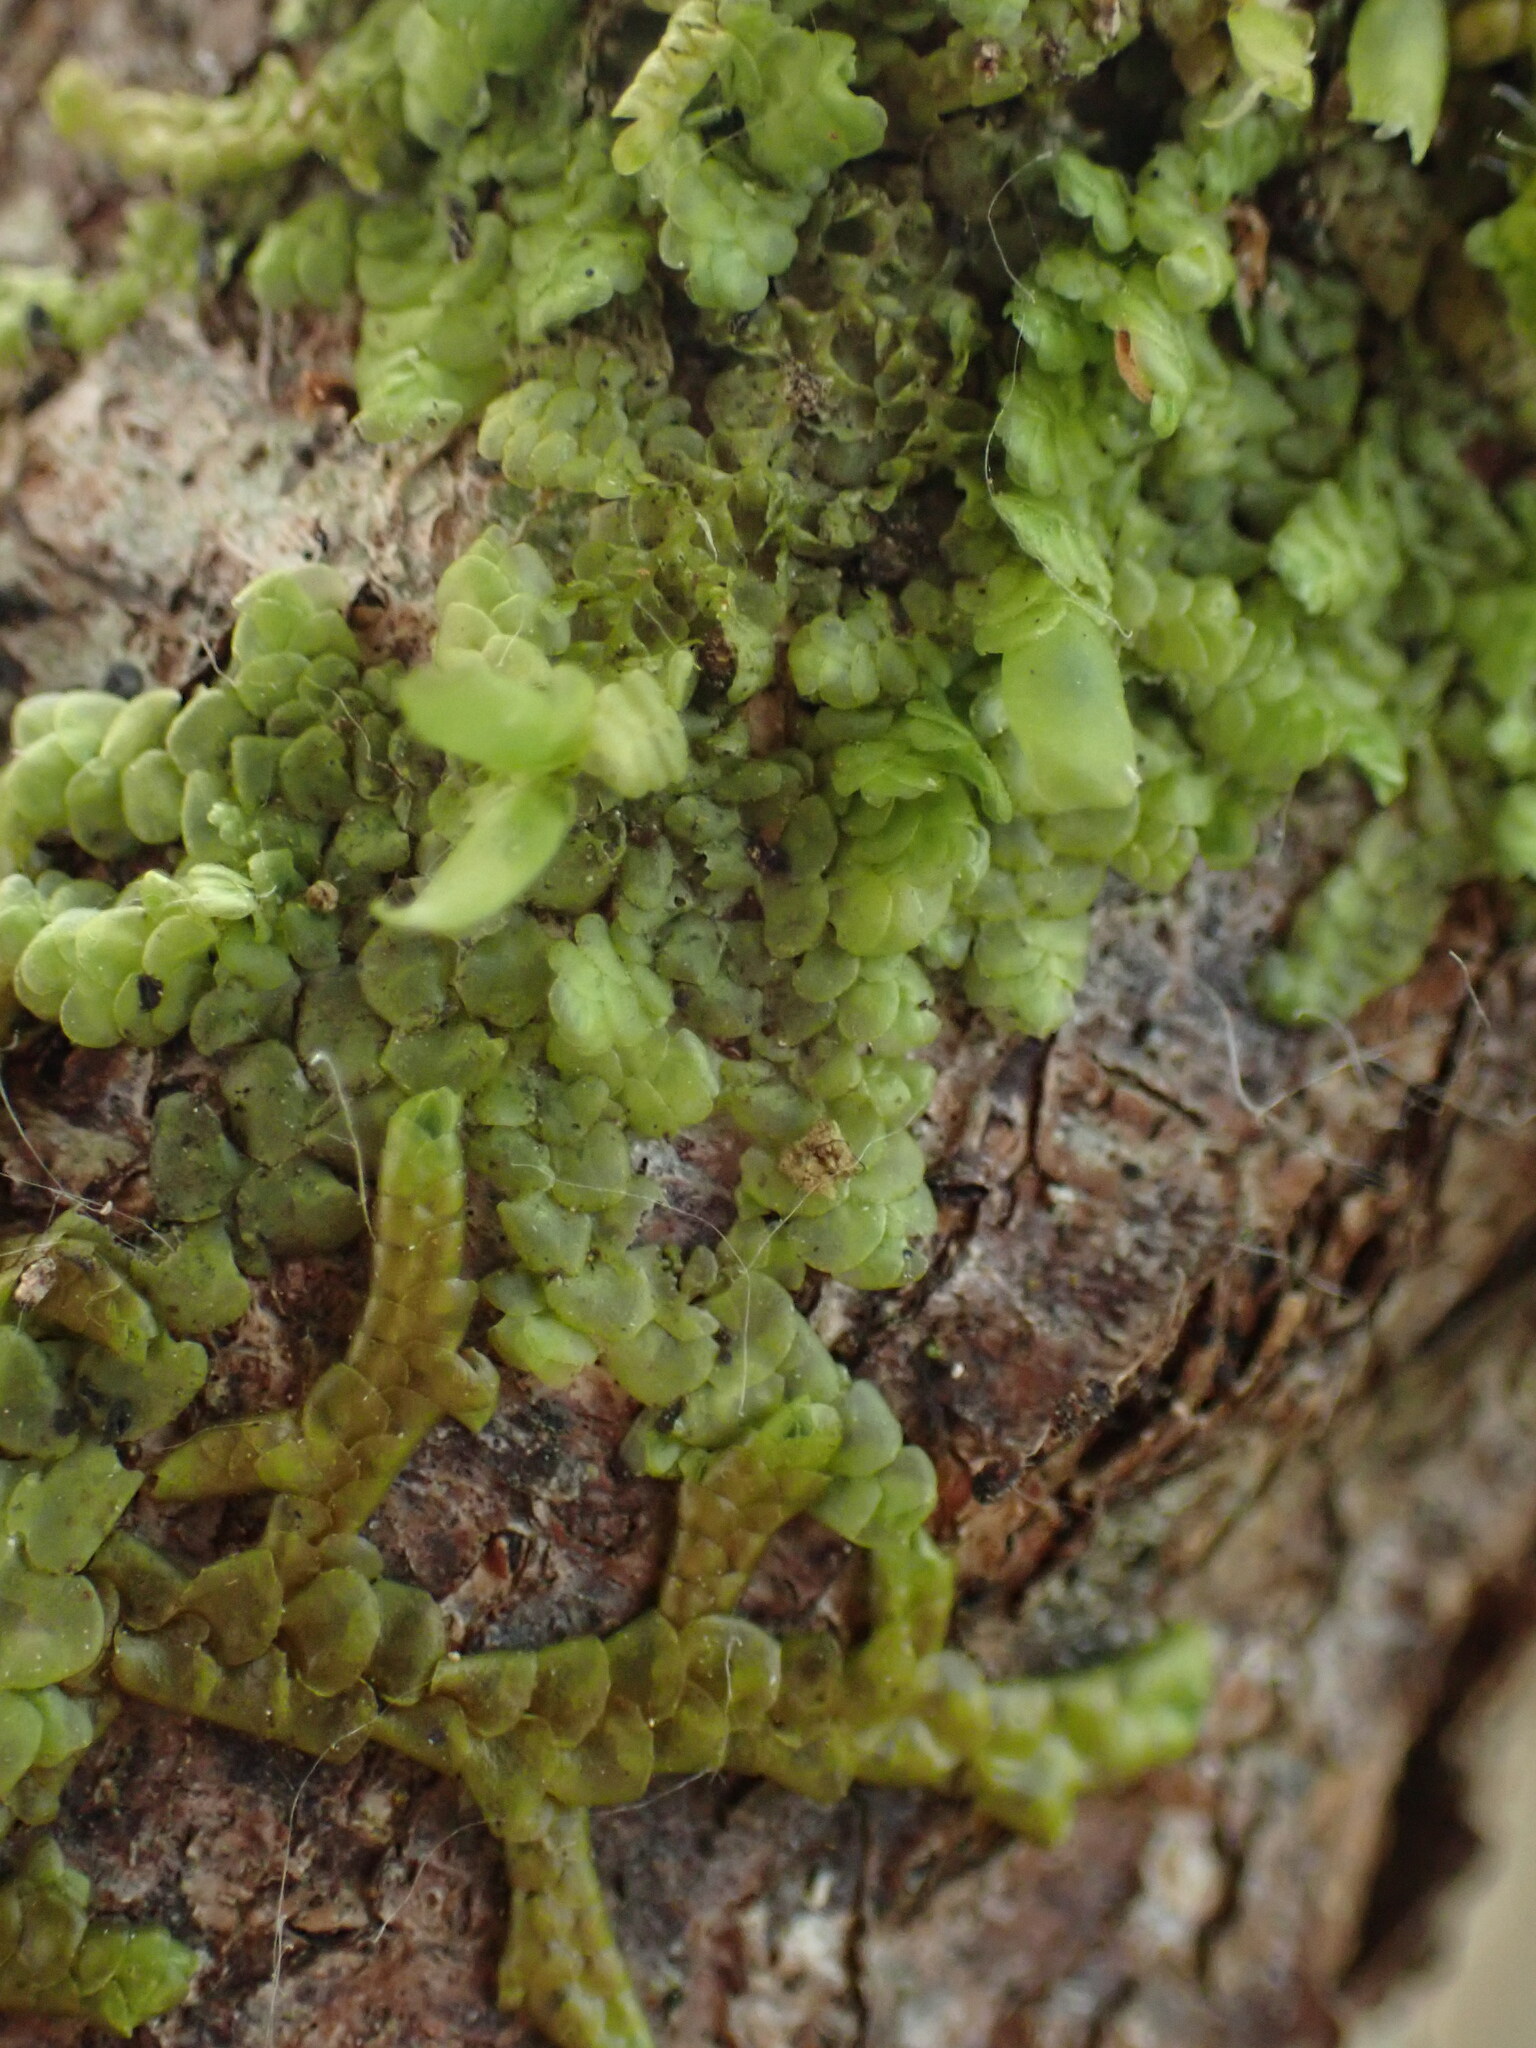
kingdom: Plantae
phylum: Marchantiophyta
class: Jungermanniopsida
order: Porellales
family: Radulaceae
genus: Radula
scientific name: Radula complanata
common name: Flat-leaved scalewort
